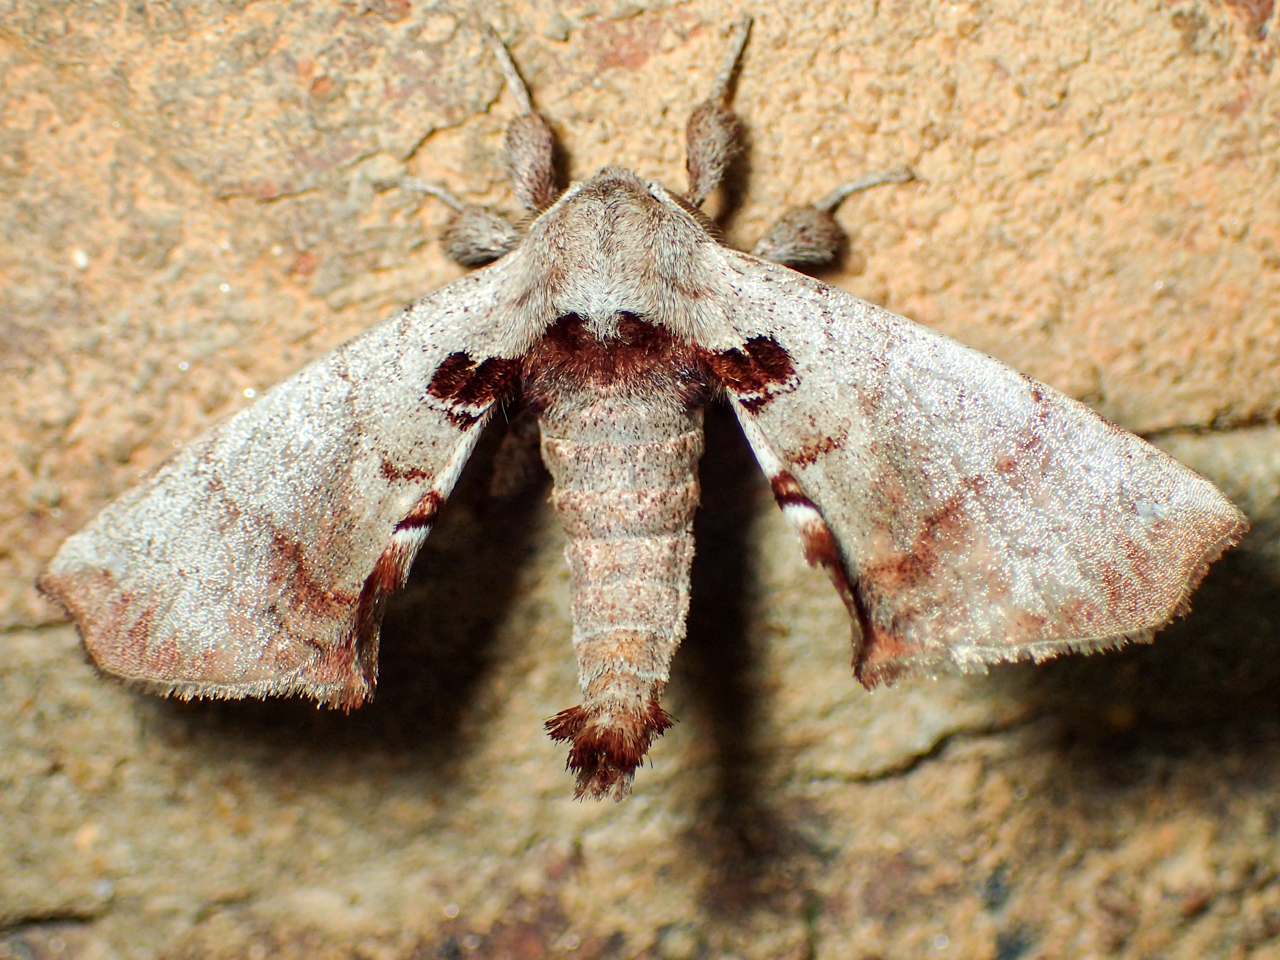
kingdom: Animalia
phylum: Arthropoda
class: Insecta
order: Lepidoptera
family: Apatelodidae
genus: Hygrochroa
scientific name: Hygrochroa Apatelodes torrefacta
